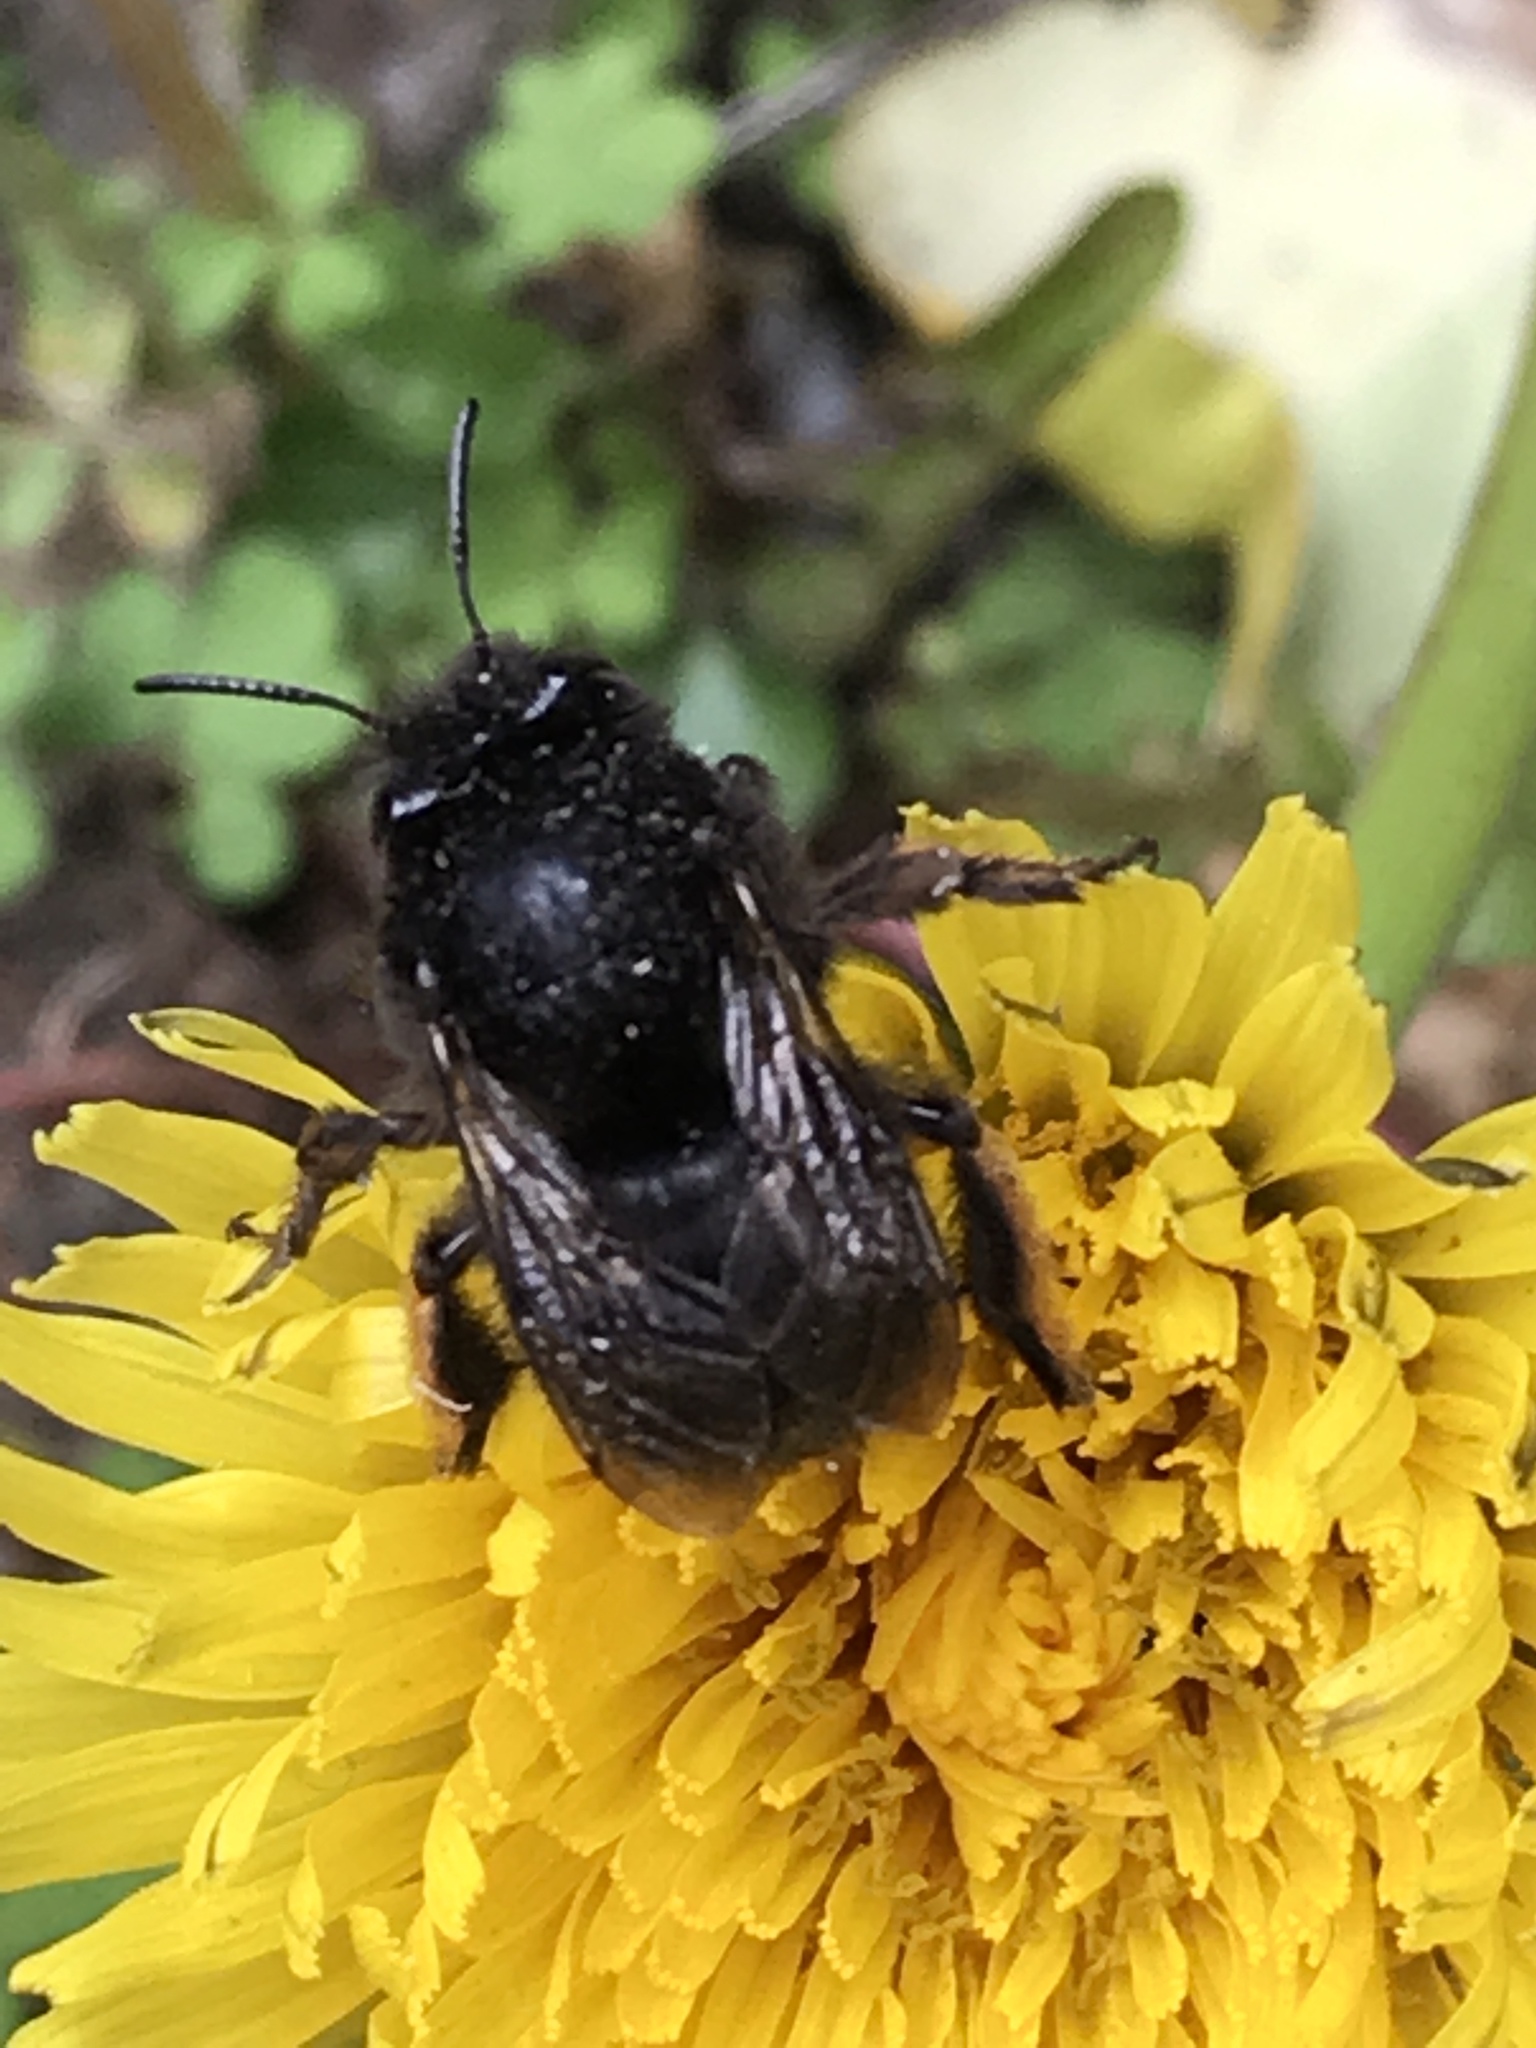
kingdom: Animalia
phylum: Arthropoda
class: Insecta
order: Hymenoptera
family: Apidae
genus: Anthophora
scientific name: Anthophora plumipes
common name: Hairy-footed flower bee
